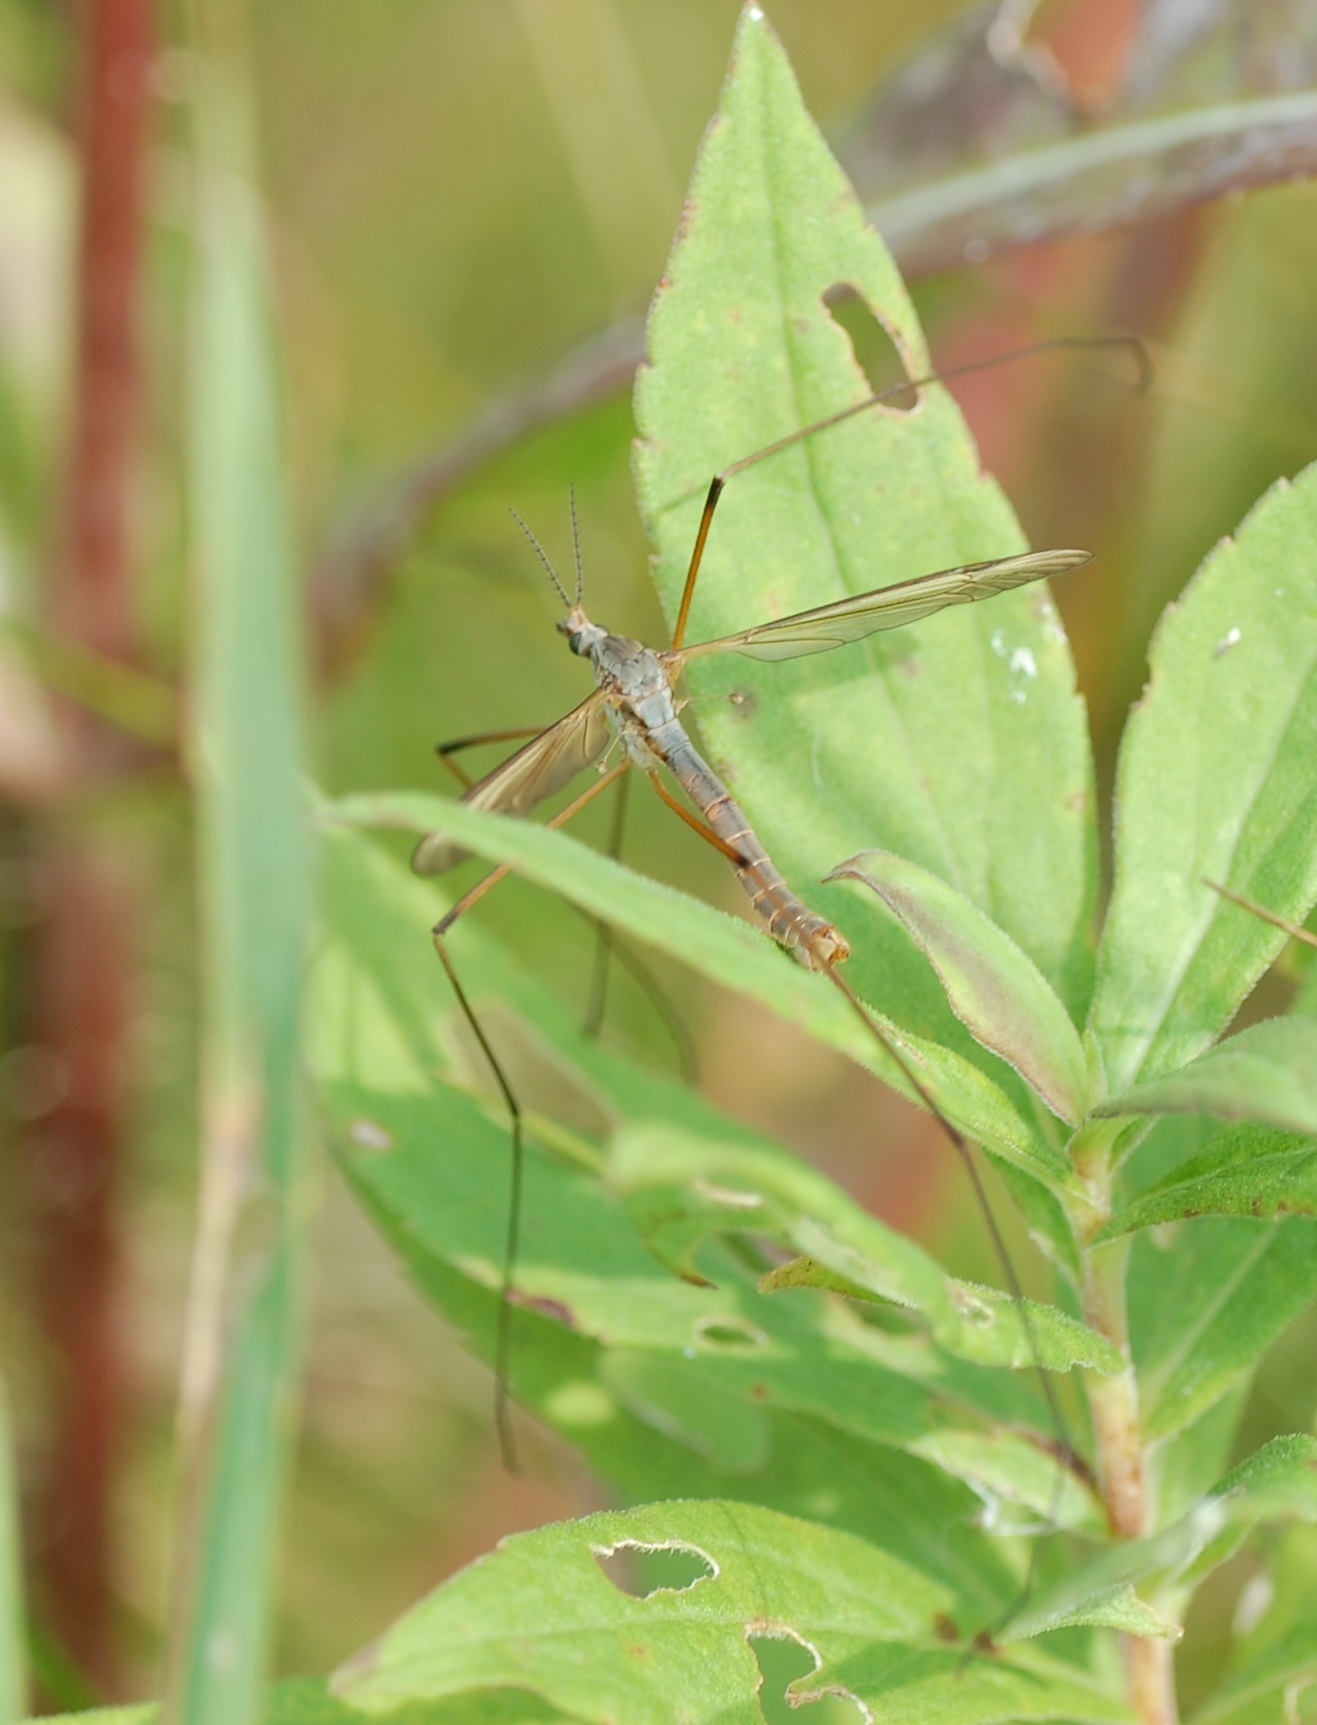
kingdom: Animalia
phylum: Arthropoda
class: Insecta
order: Diptera
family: Tipulidae
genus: Tipula
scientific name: Tipula paludosa
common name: European cranefly
